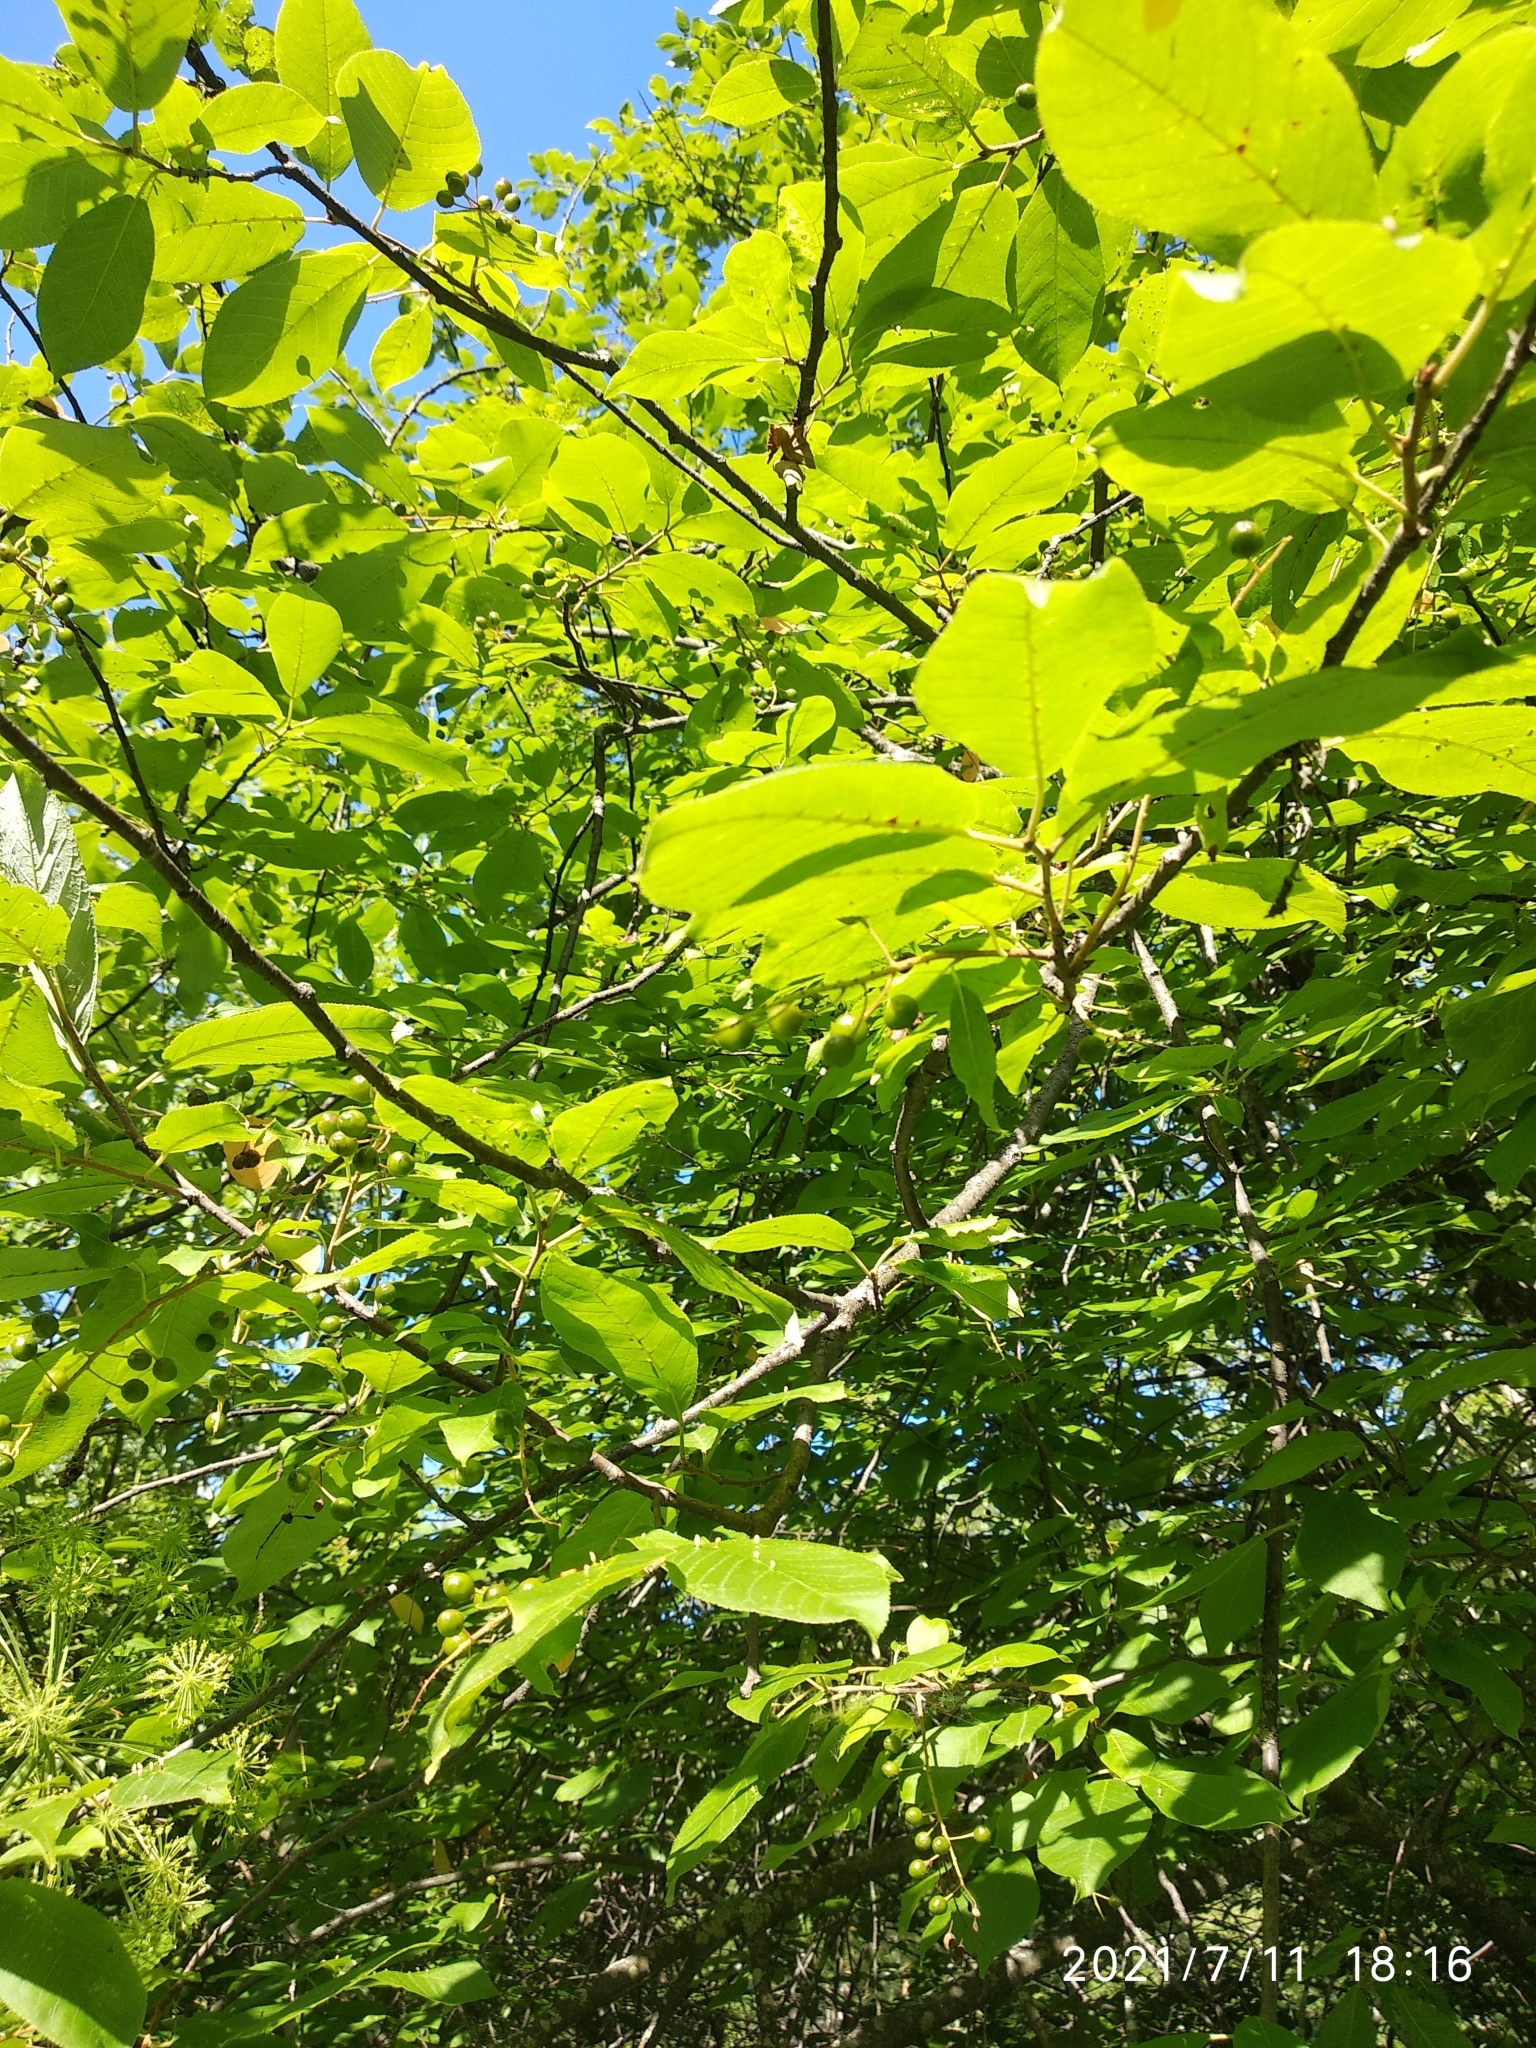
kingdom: Plantae
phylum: Tracheophyta
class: Magnoliopsida
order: Rosales
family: Rosaceae
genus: Prunus
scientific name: Prunus padus
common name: Bird cherry
